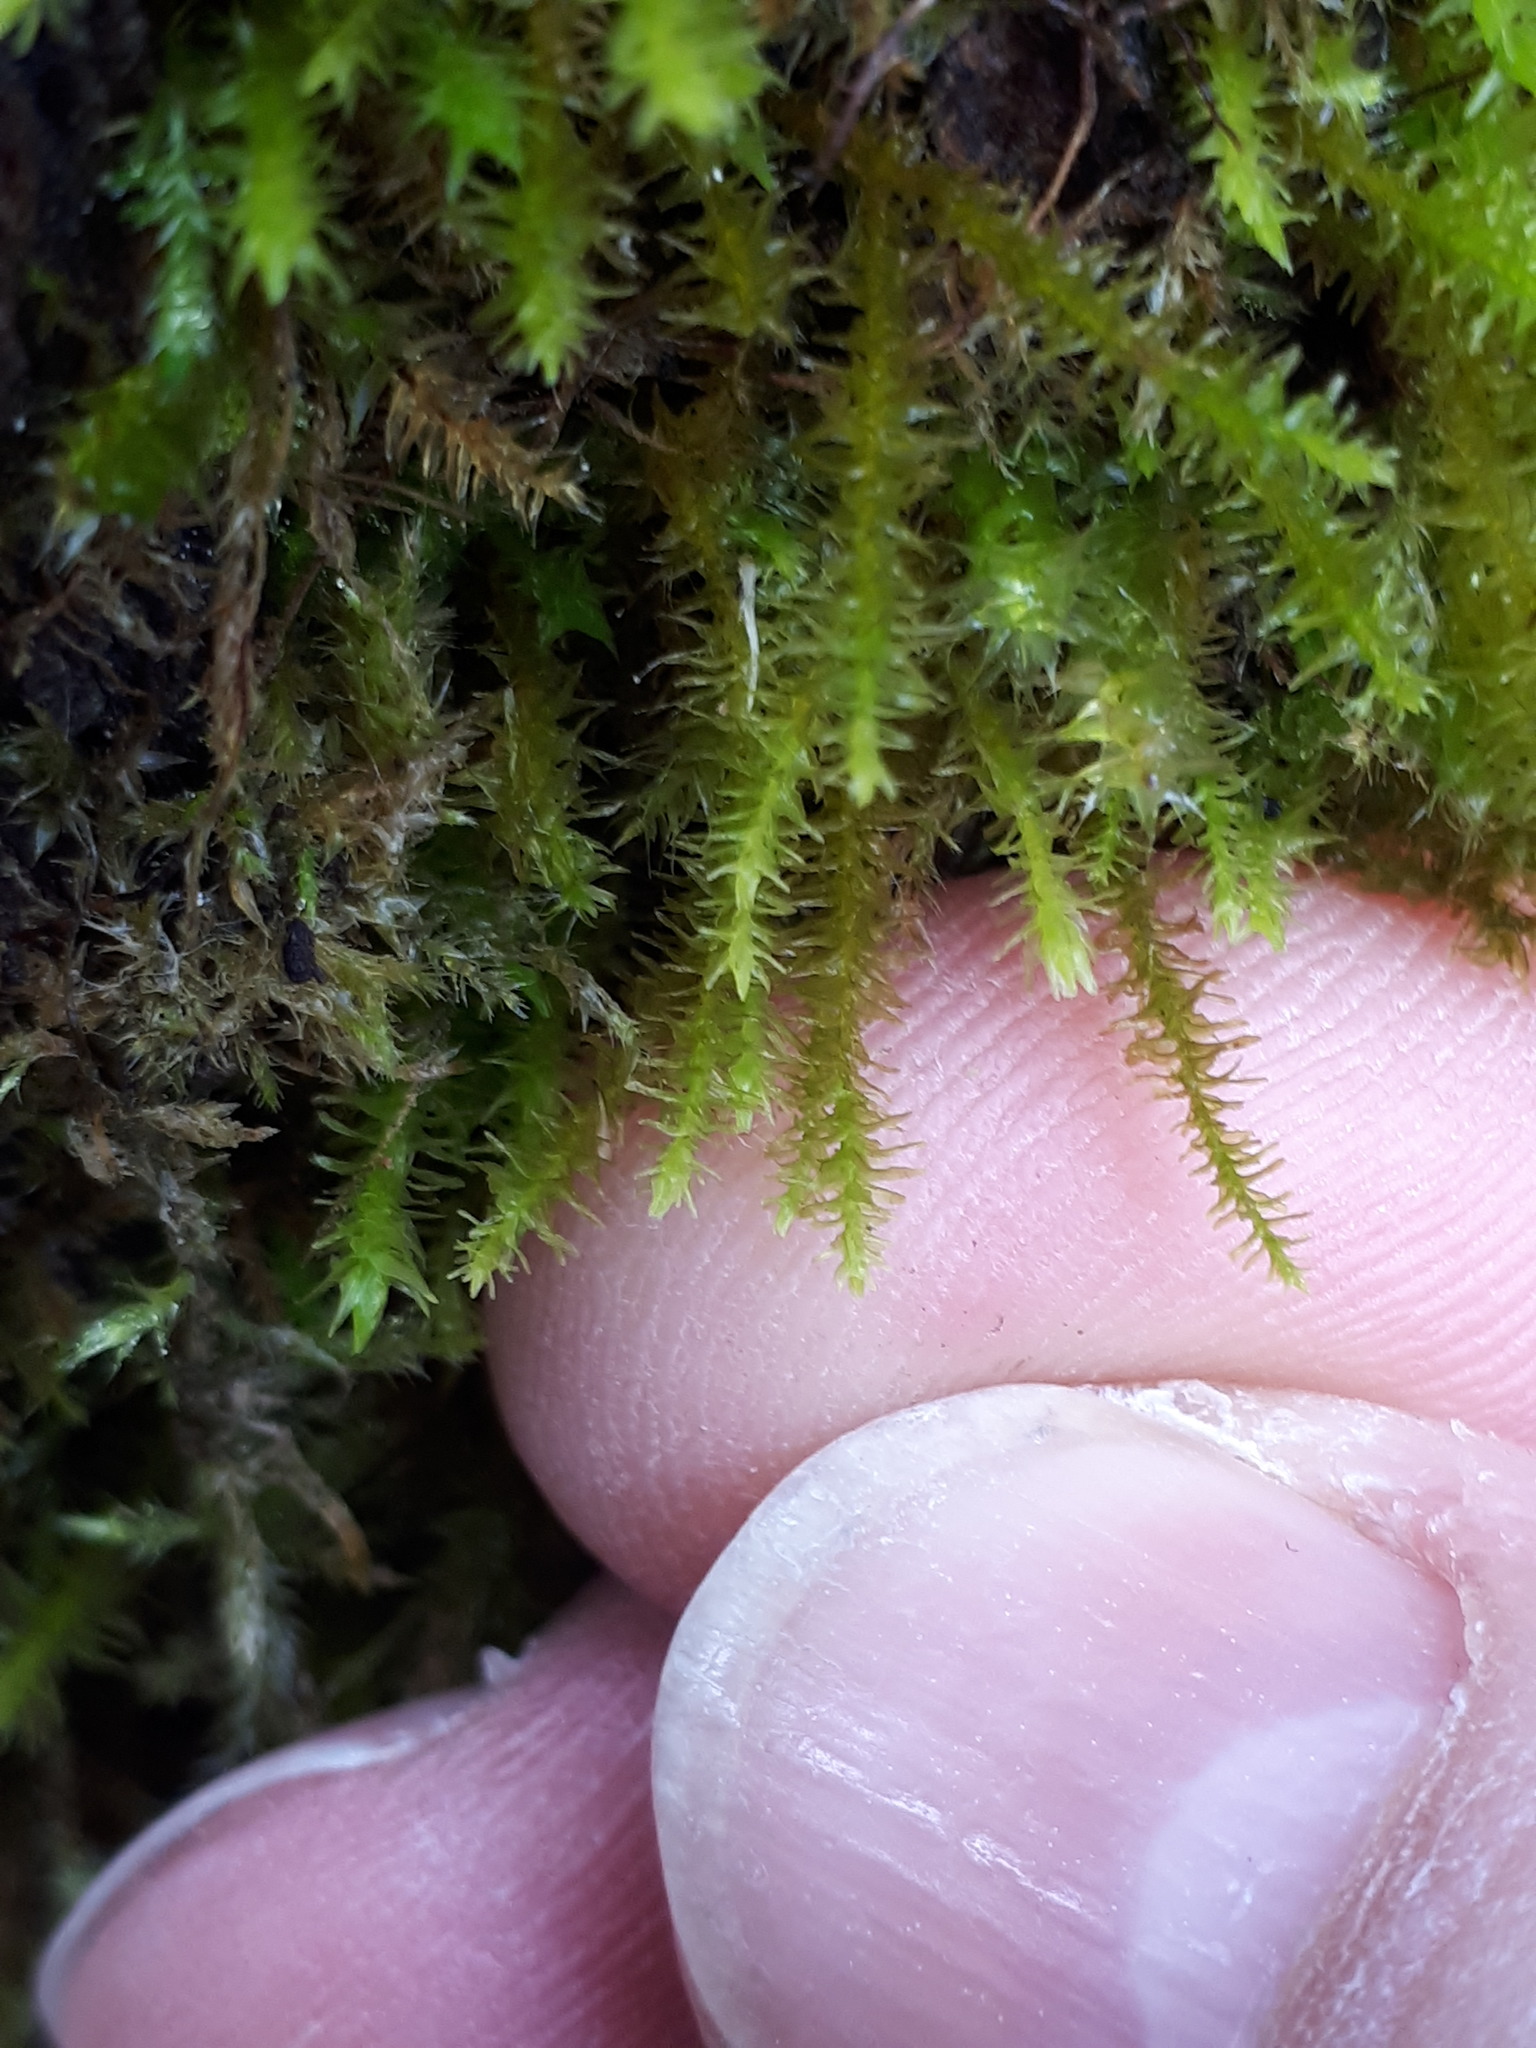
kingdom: Plantae
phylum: Bryophyta
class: Bryopsida
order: Hypnales
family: Anomodontaceae
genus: Anomodon
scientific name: Anomodon viticulosus
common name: Tall anomodon
